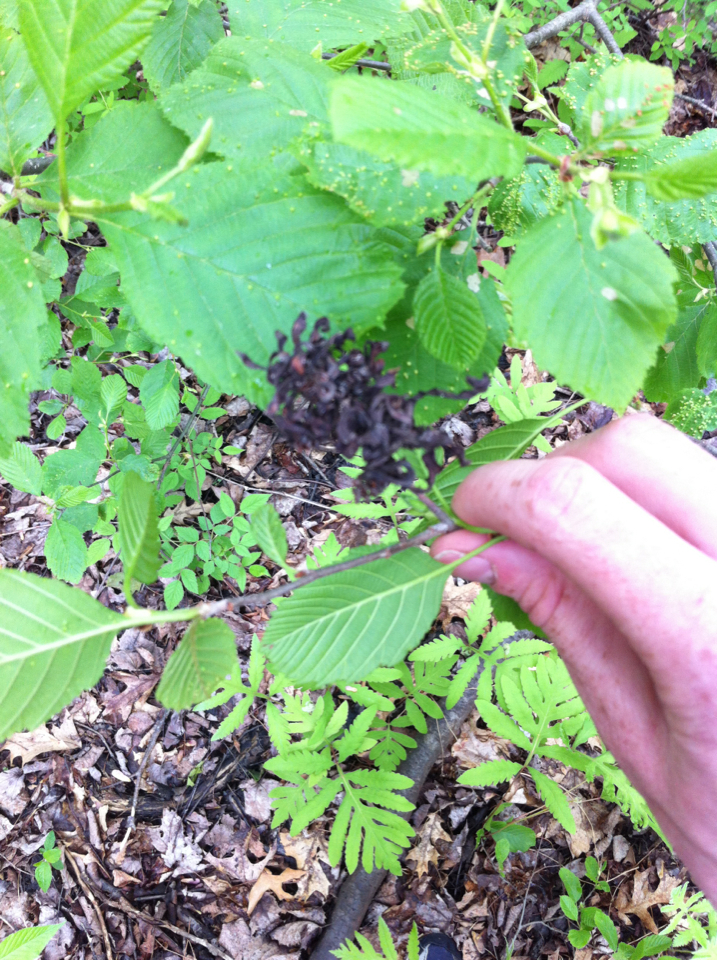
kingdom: Fungi
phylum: Ascomycota
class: Taphrinomycetes
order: Taphrinales
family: Taphrinaceae
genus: Taphrina
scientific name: Taphrina robinsoniana
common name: Eastern american alder tongue gall fungus
